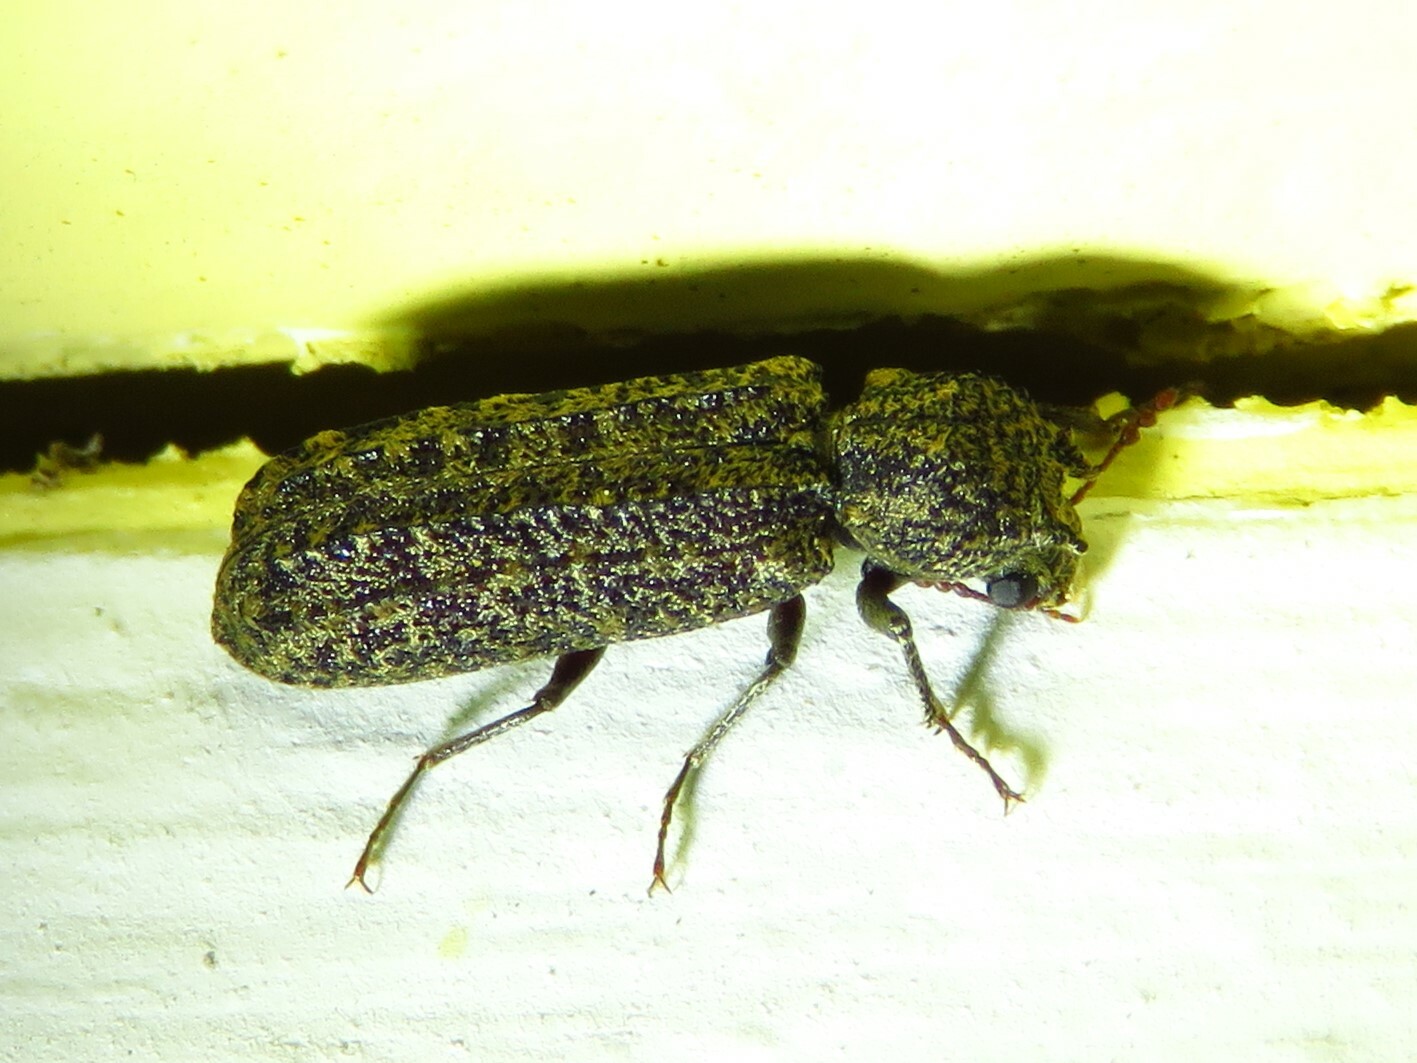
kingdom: Animalia
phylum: Arthropoda
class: Insecta
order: Coleoptera
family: Bostrichidae
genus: Lichenophanes
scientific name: Lichenophanes bicornis
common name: Two-horned powder-post beetle
